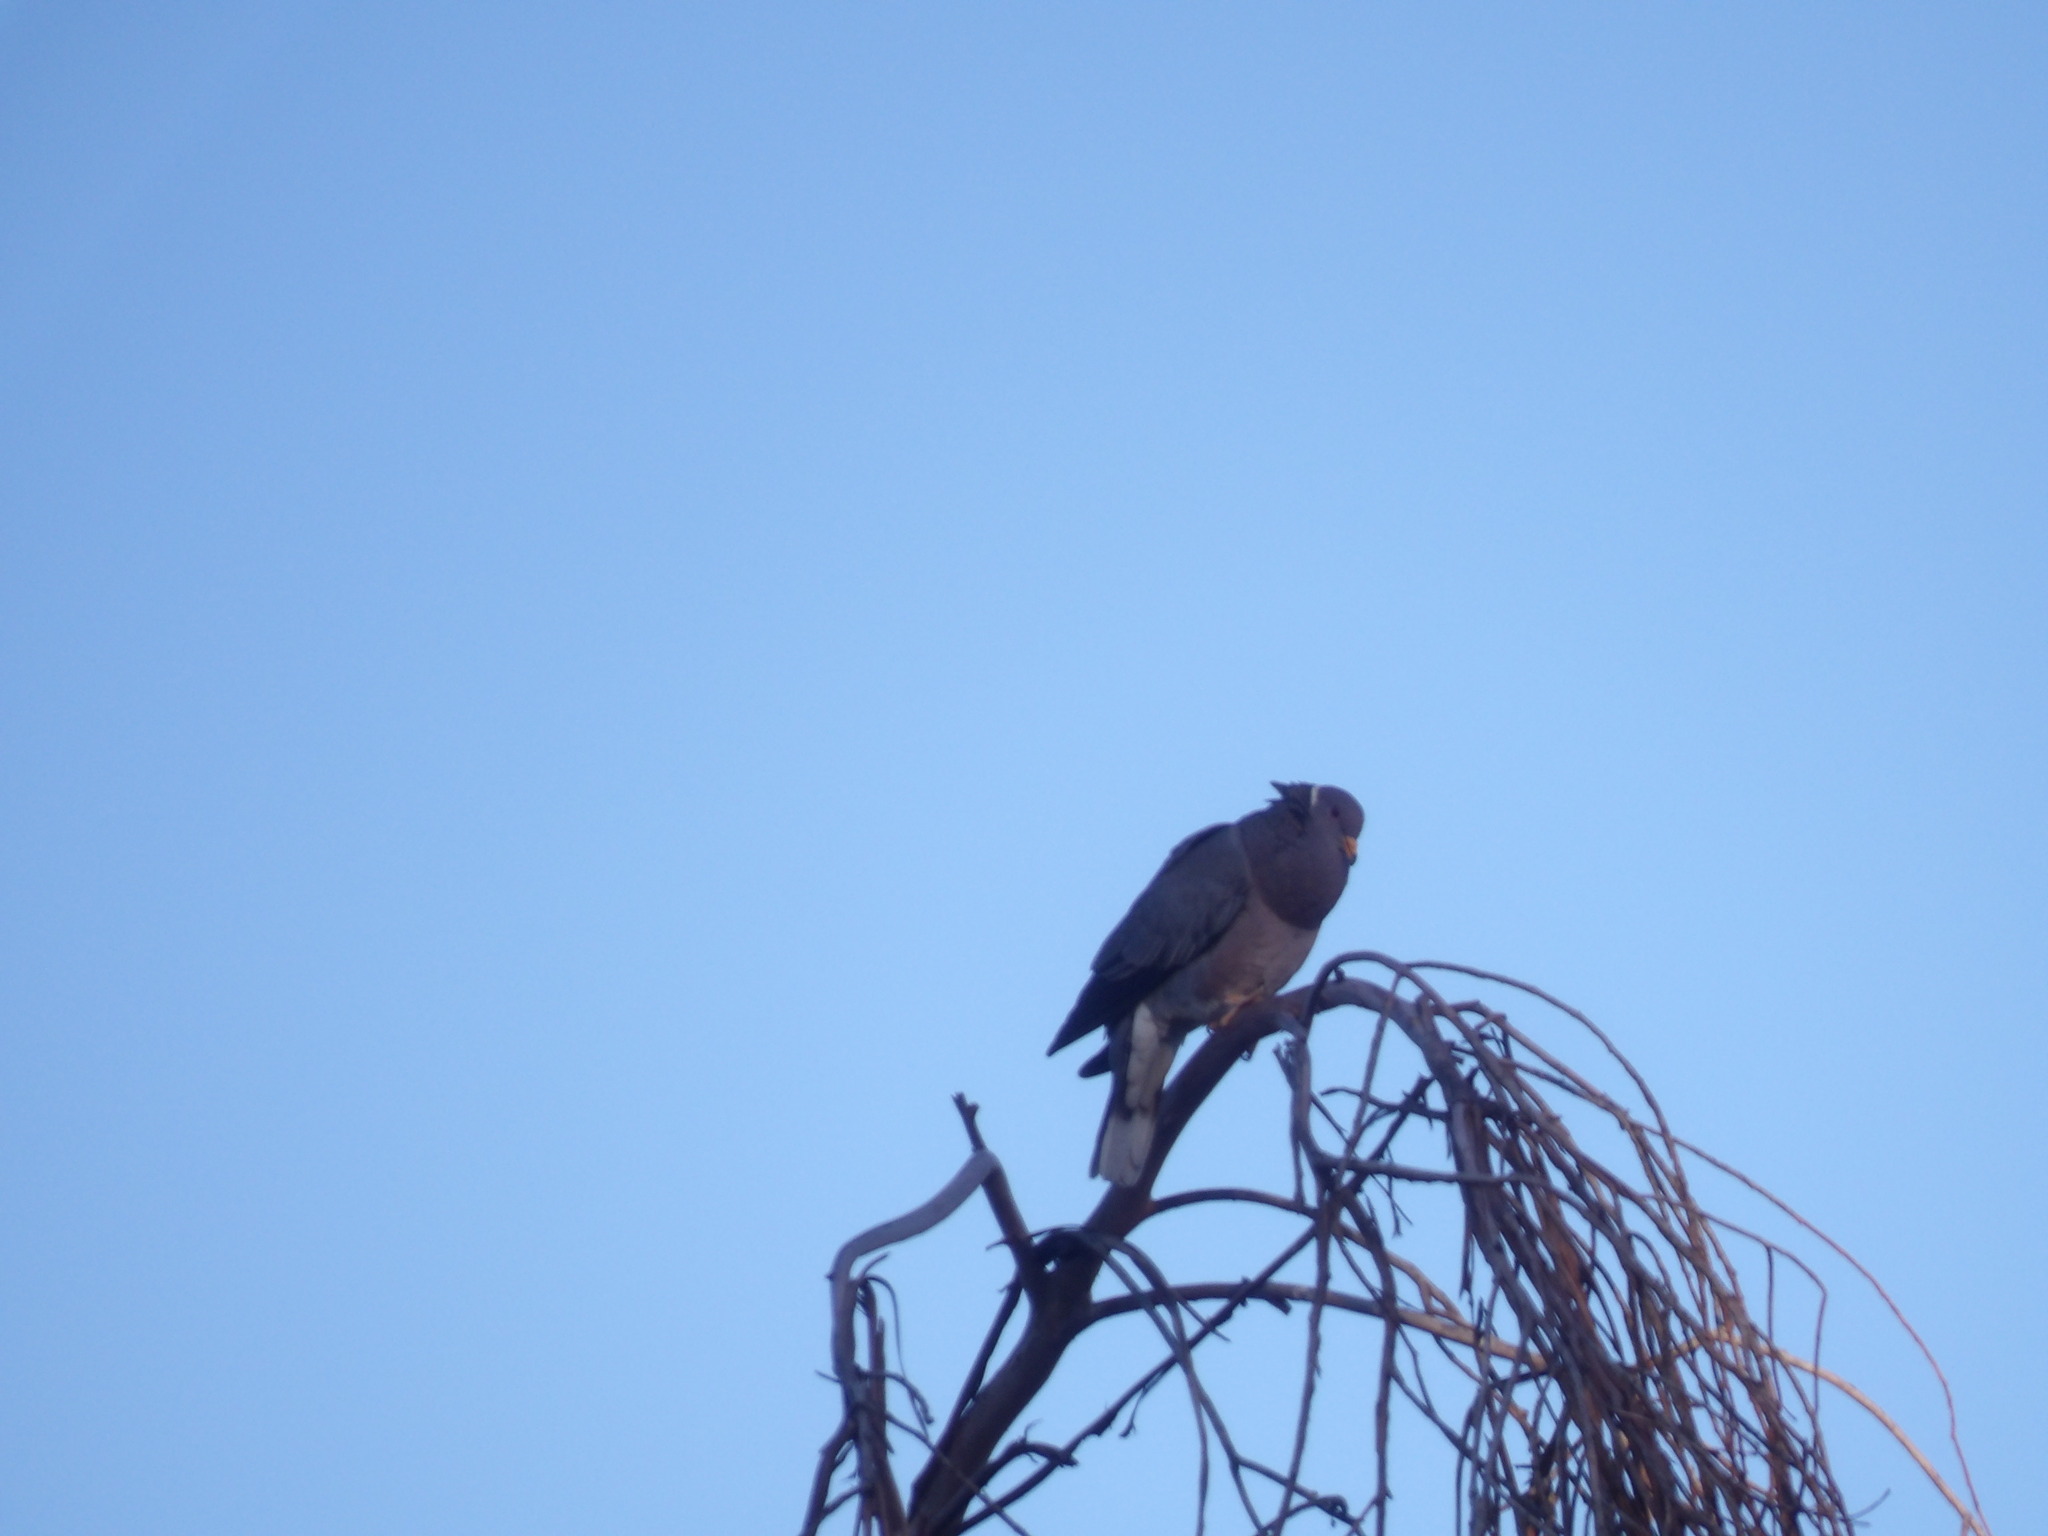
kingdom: Animalia
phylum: Chordata
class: Aves
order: Columbiformes
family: Columbidae
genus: Patagioenas
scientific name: Patagioenas fasciata
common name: Band-tailed pigeon
